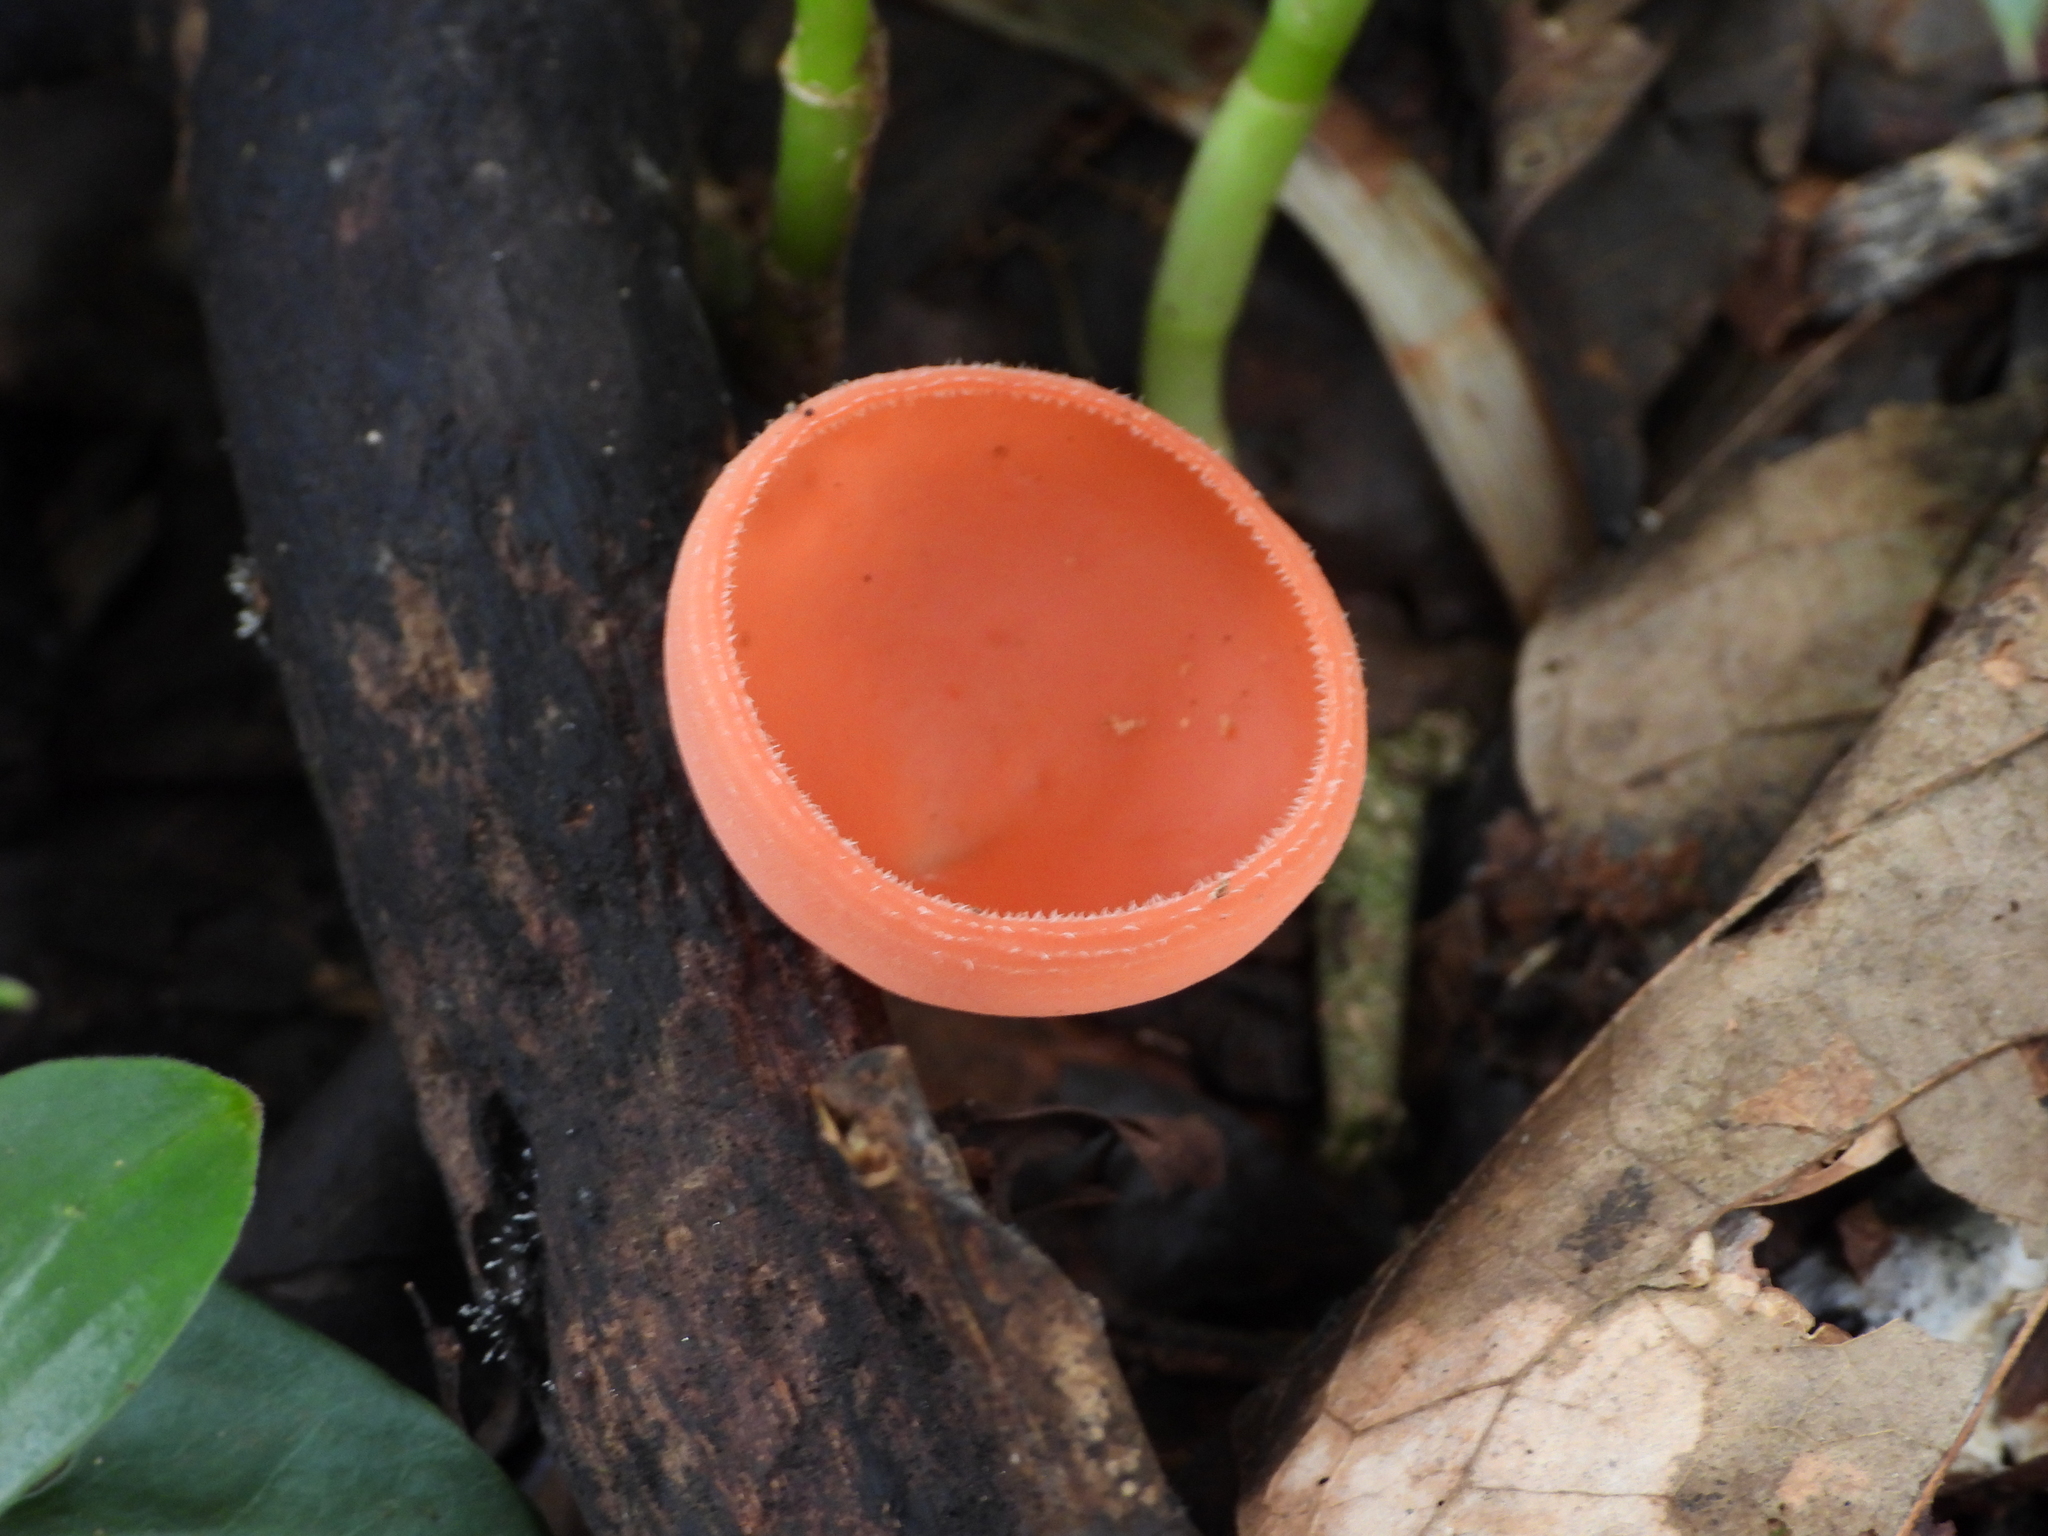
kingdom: Fungi
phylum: Ascomycota
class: Pezizomycetes
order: Pezizales
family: Sarcoscyphaceae
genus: Cookeina
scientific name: Cookeina speciosa
